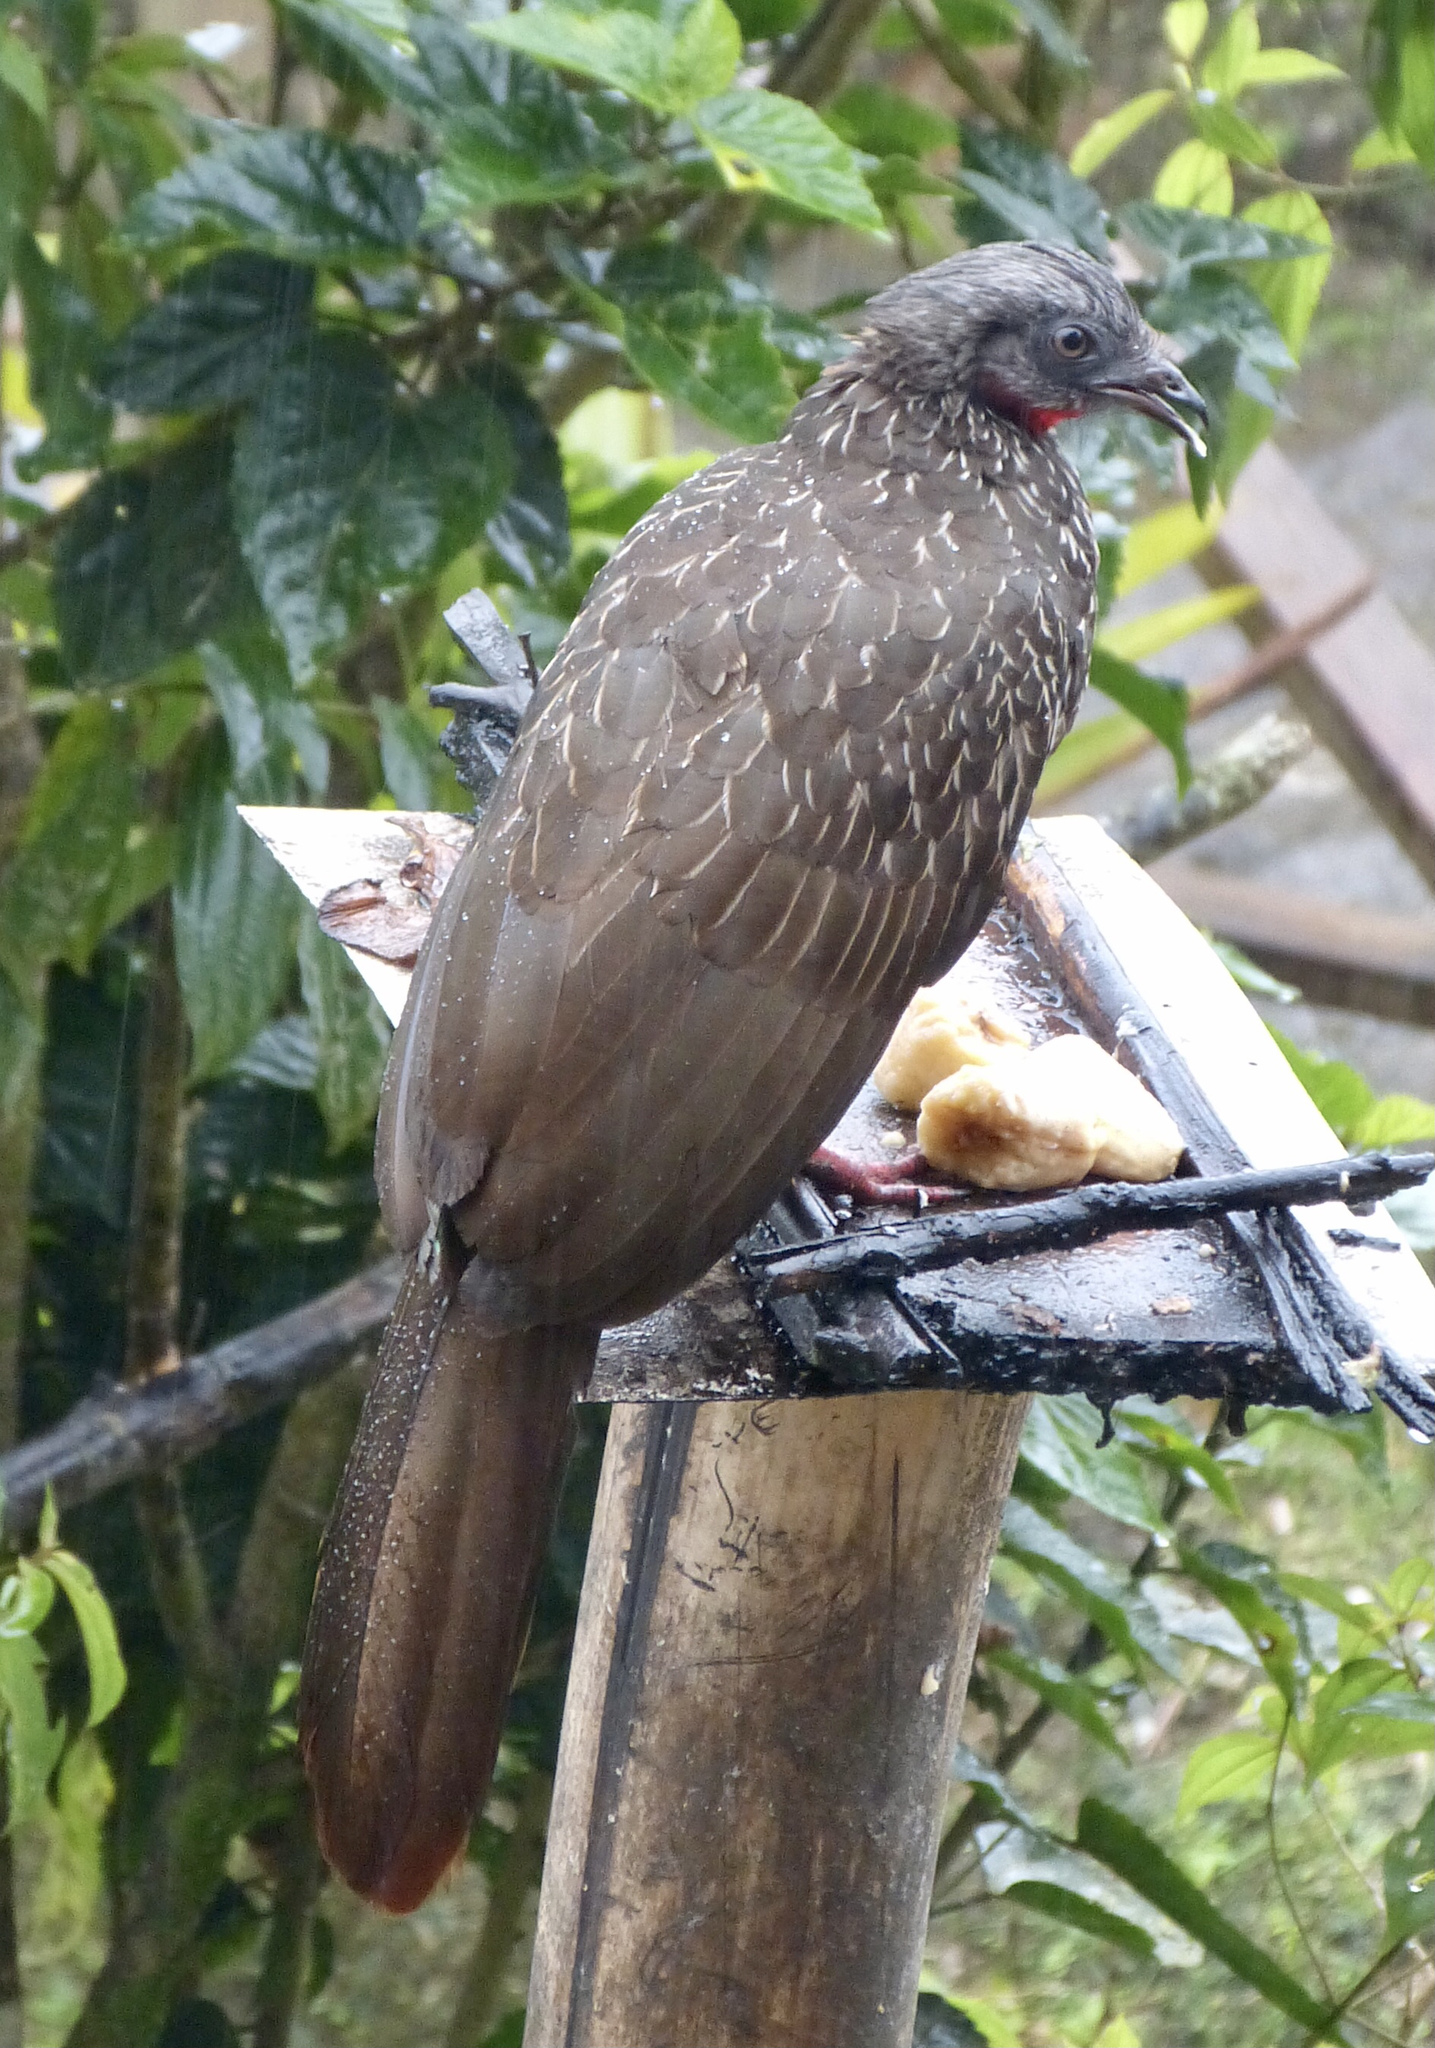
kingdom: Animalia
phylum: Chordata
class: Aves
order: Galliformes
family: Cracidae
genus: Penelope
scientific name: Penelope argyrotis
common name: Band-tailed guan
